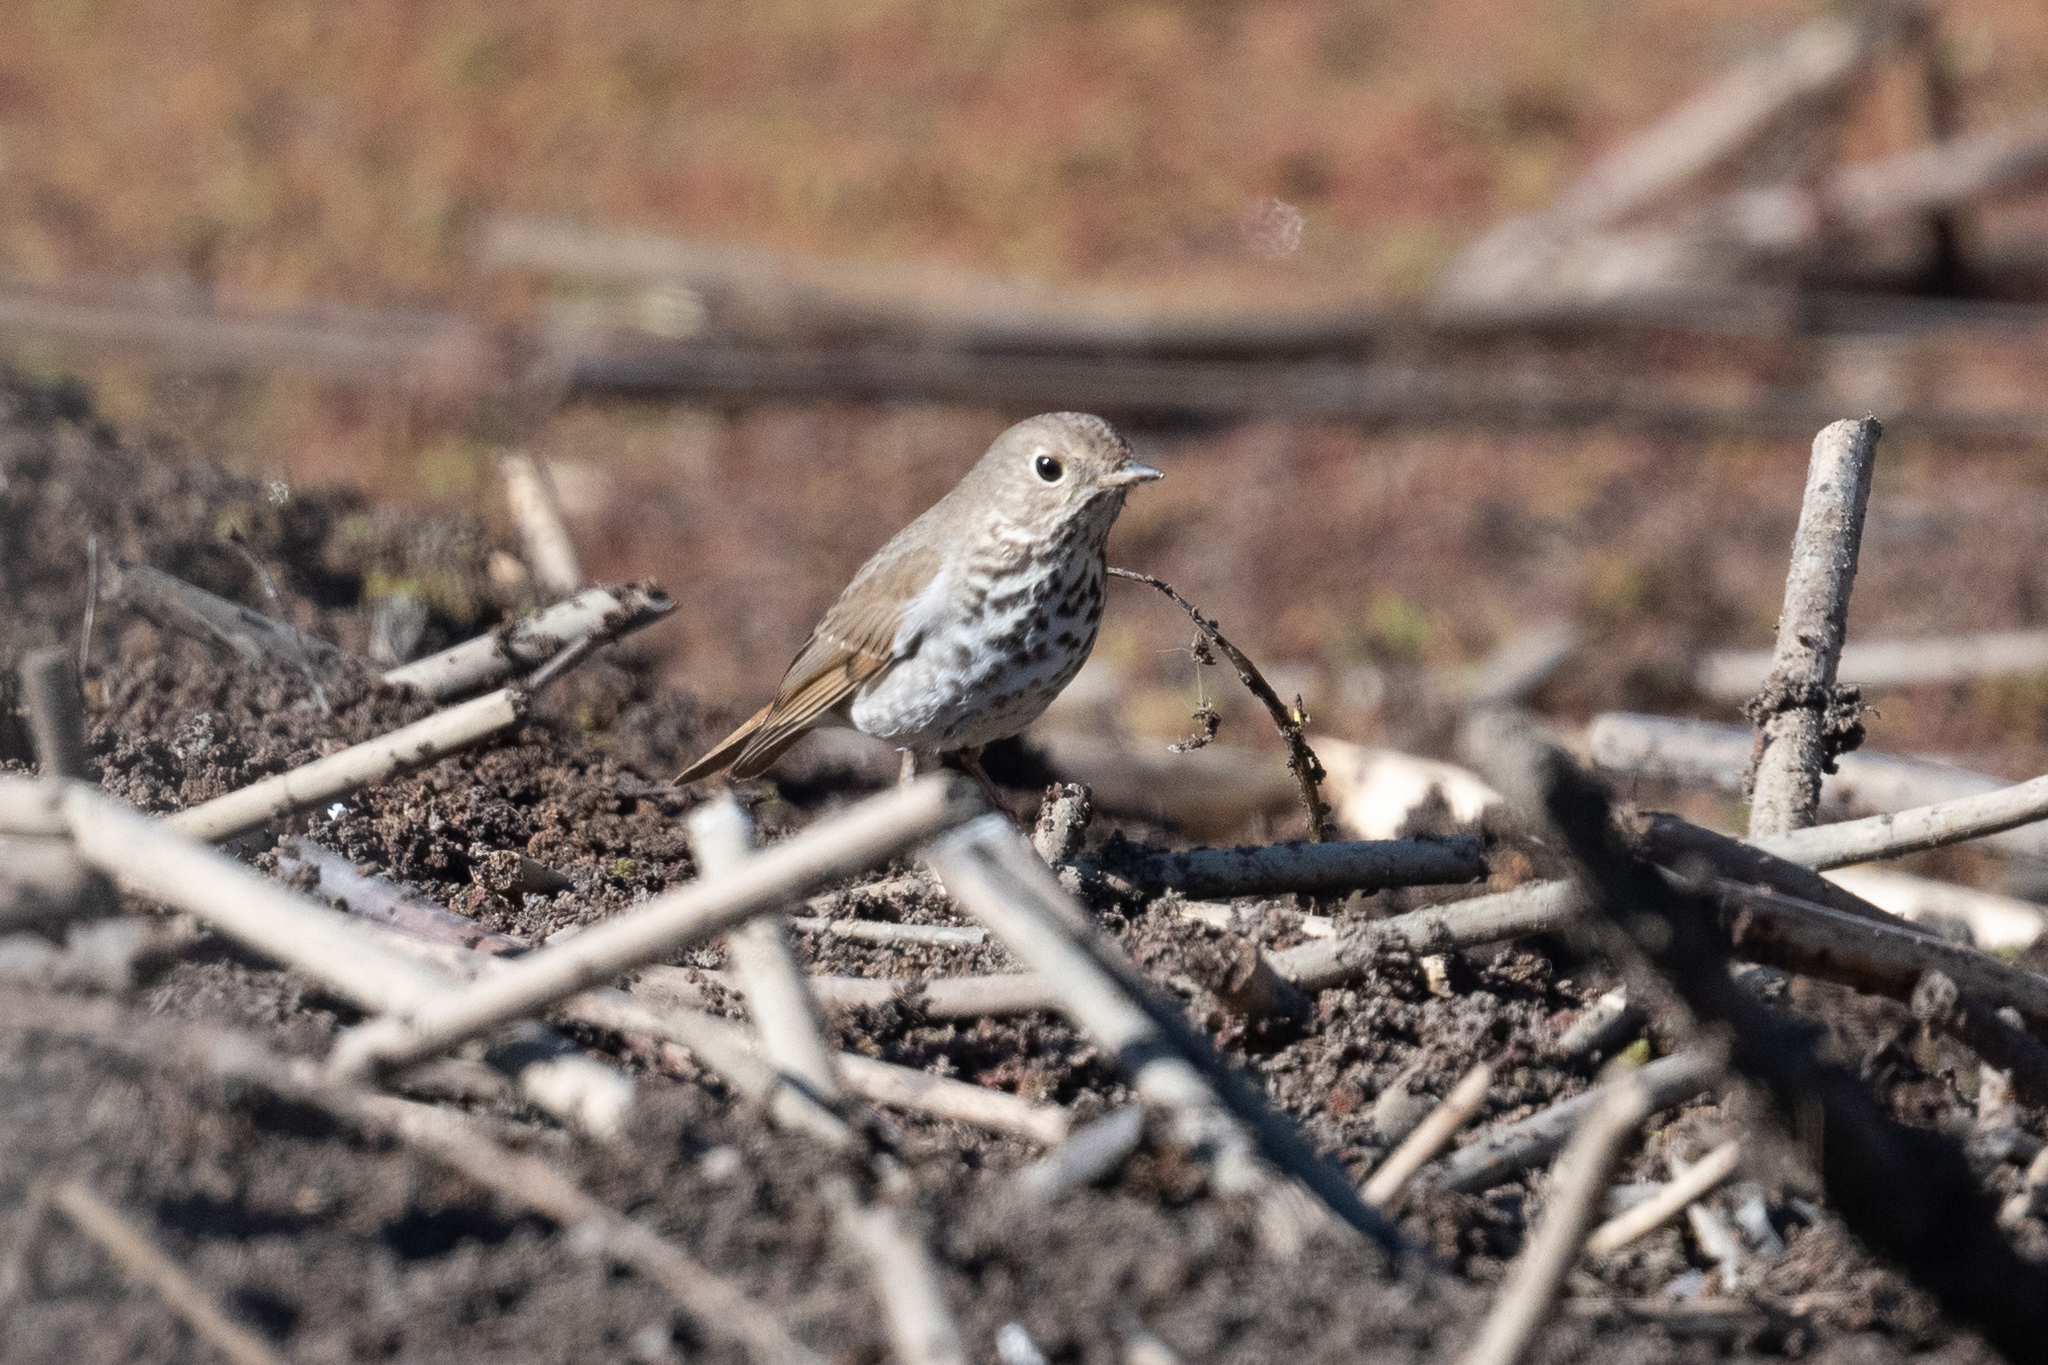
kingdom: Animalia
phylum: Chordata
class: Aves
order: Passeriformes
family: Turdidae
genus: Catharus
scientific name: Catharus guttatus
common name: Hermit thrush
